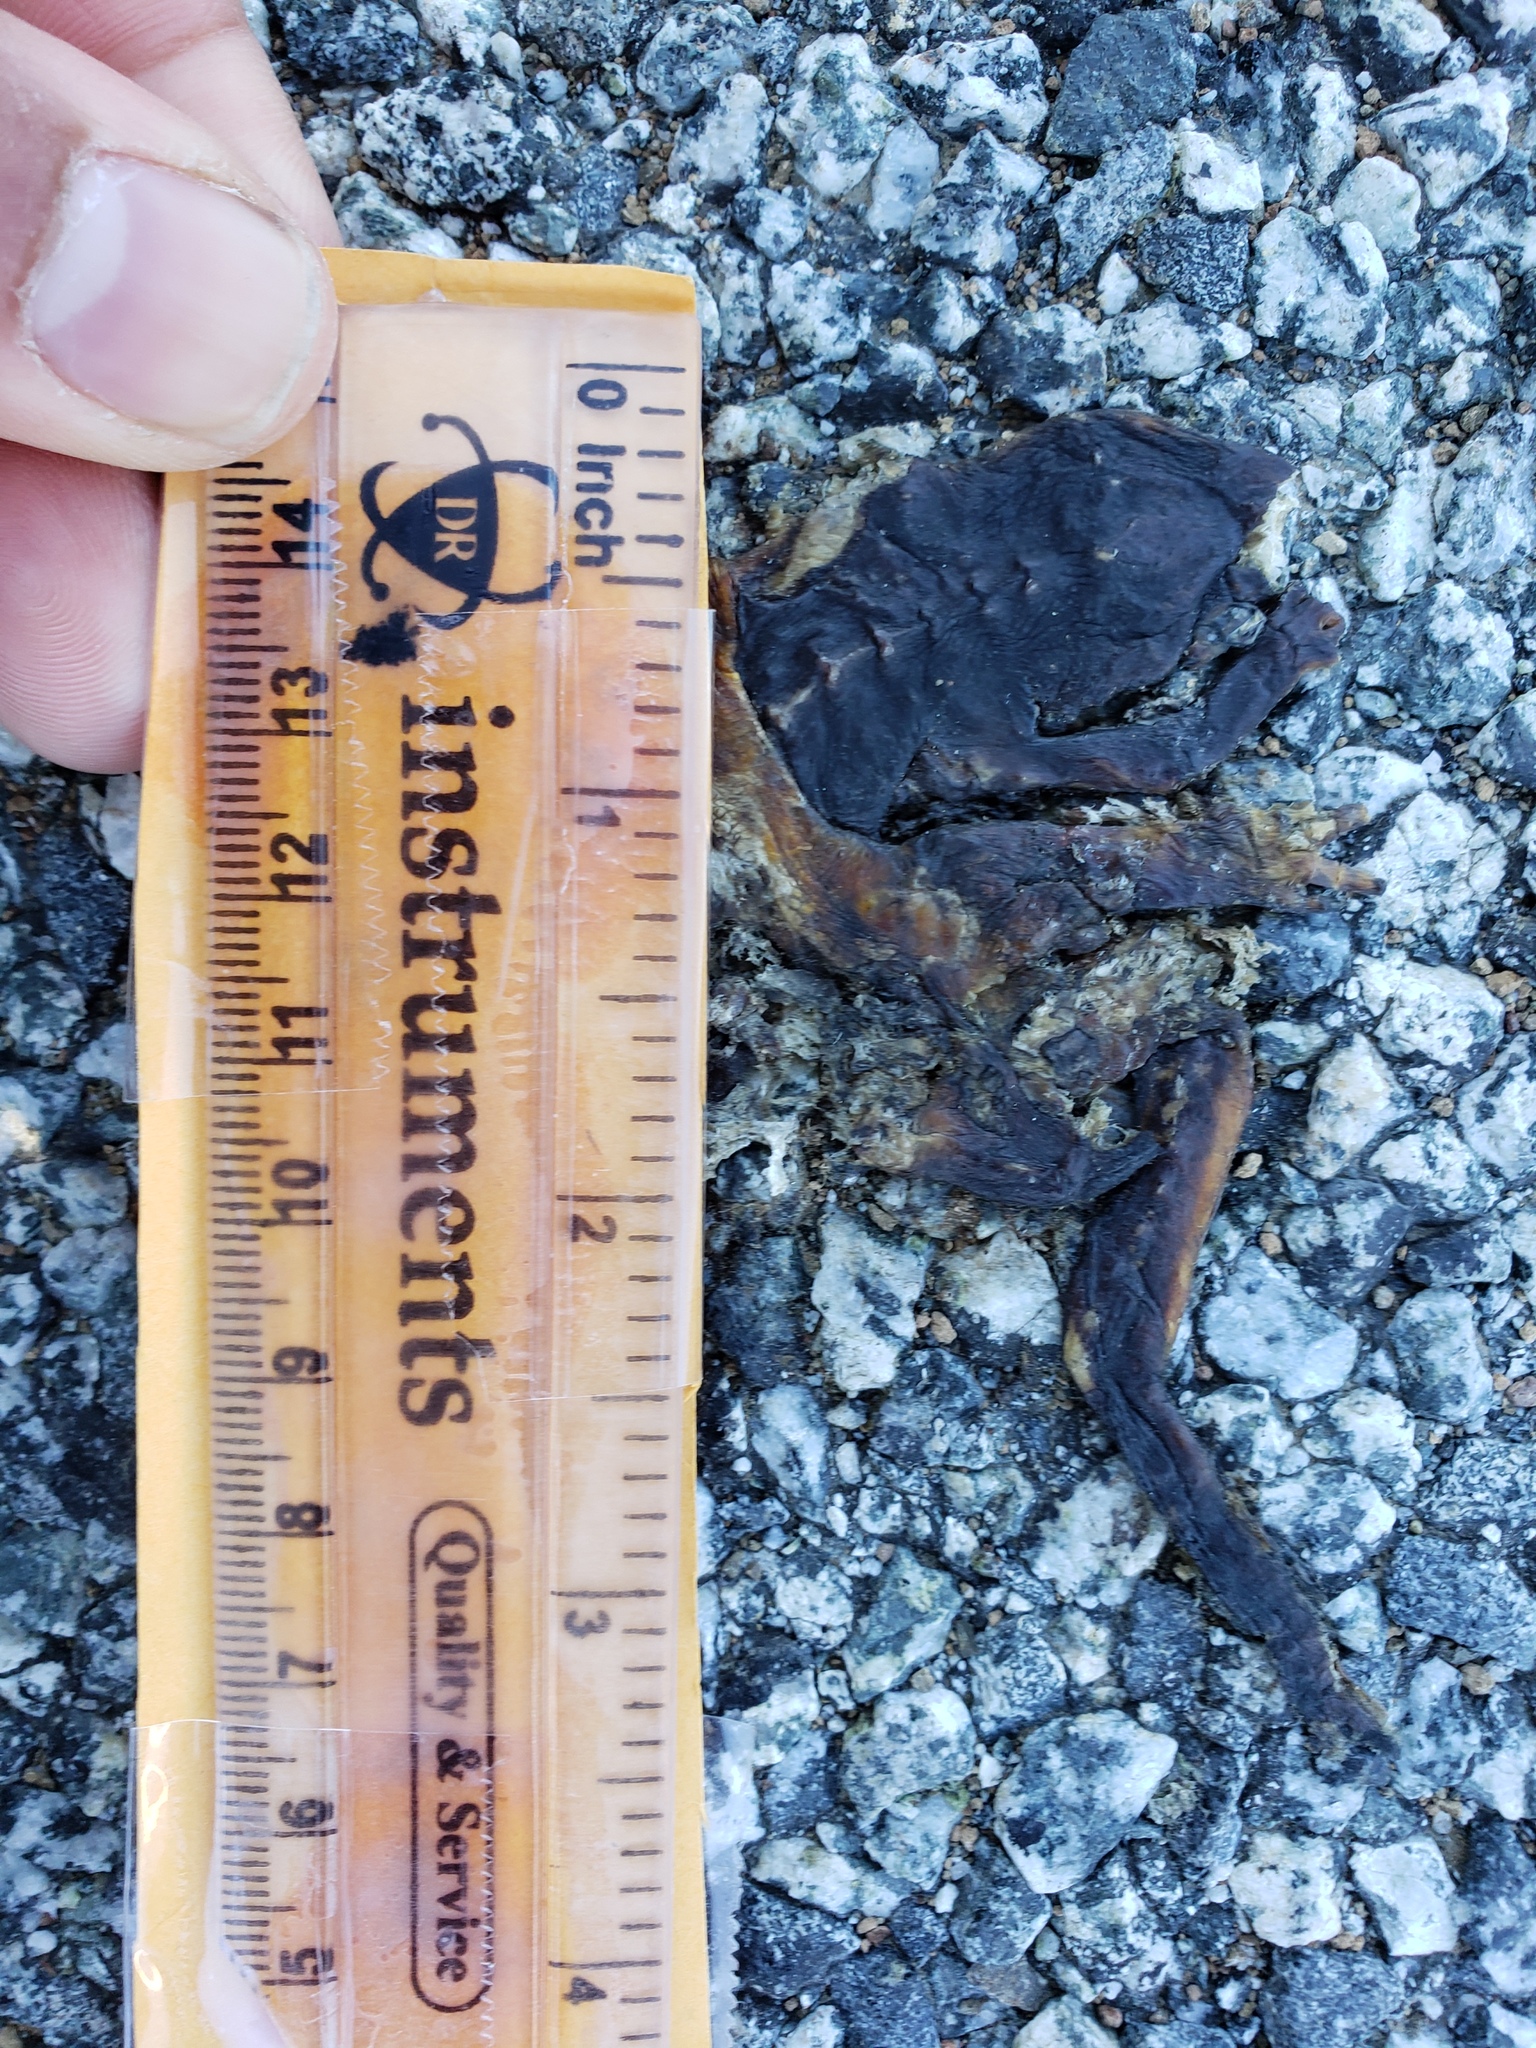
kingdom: Animalia
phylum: Chordata
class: Amphibia
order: Caudata
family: Salamandridae
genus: Taricha
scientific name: Taricha
